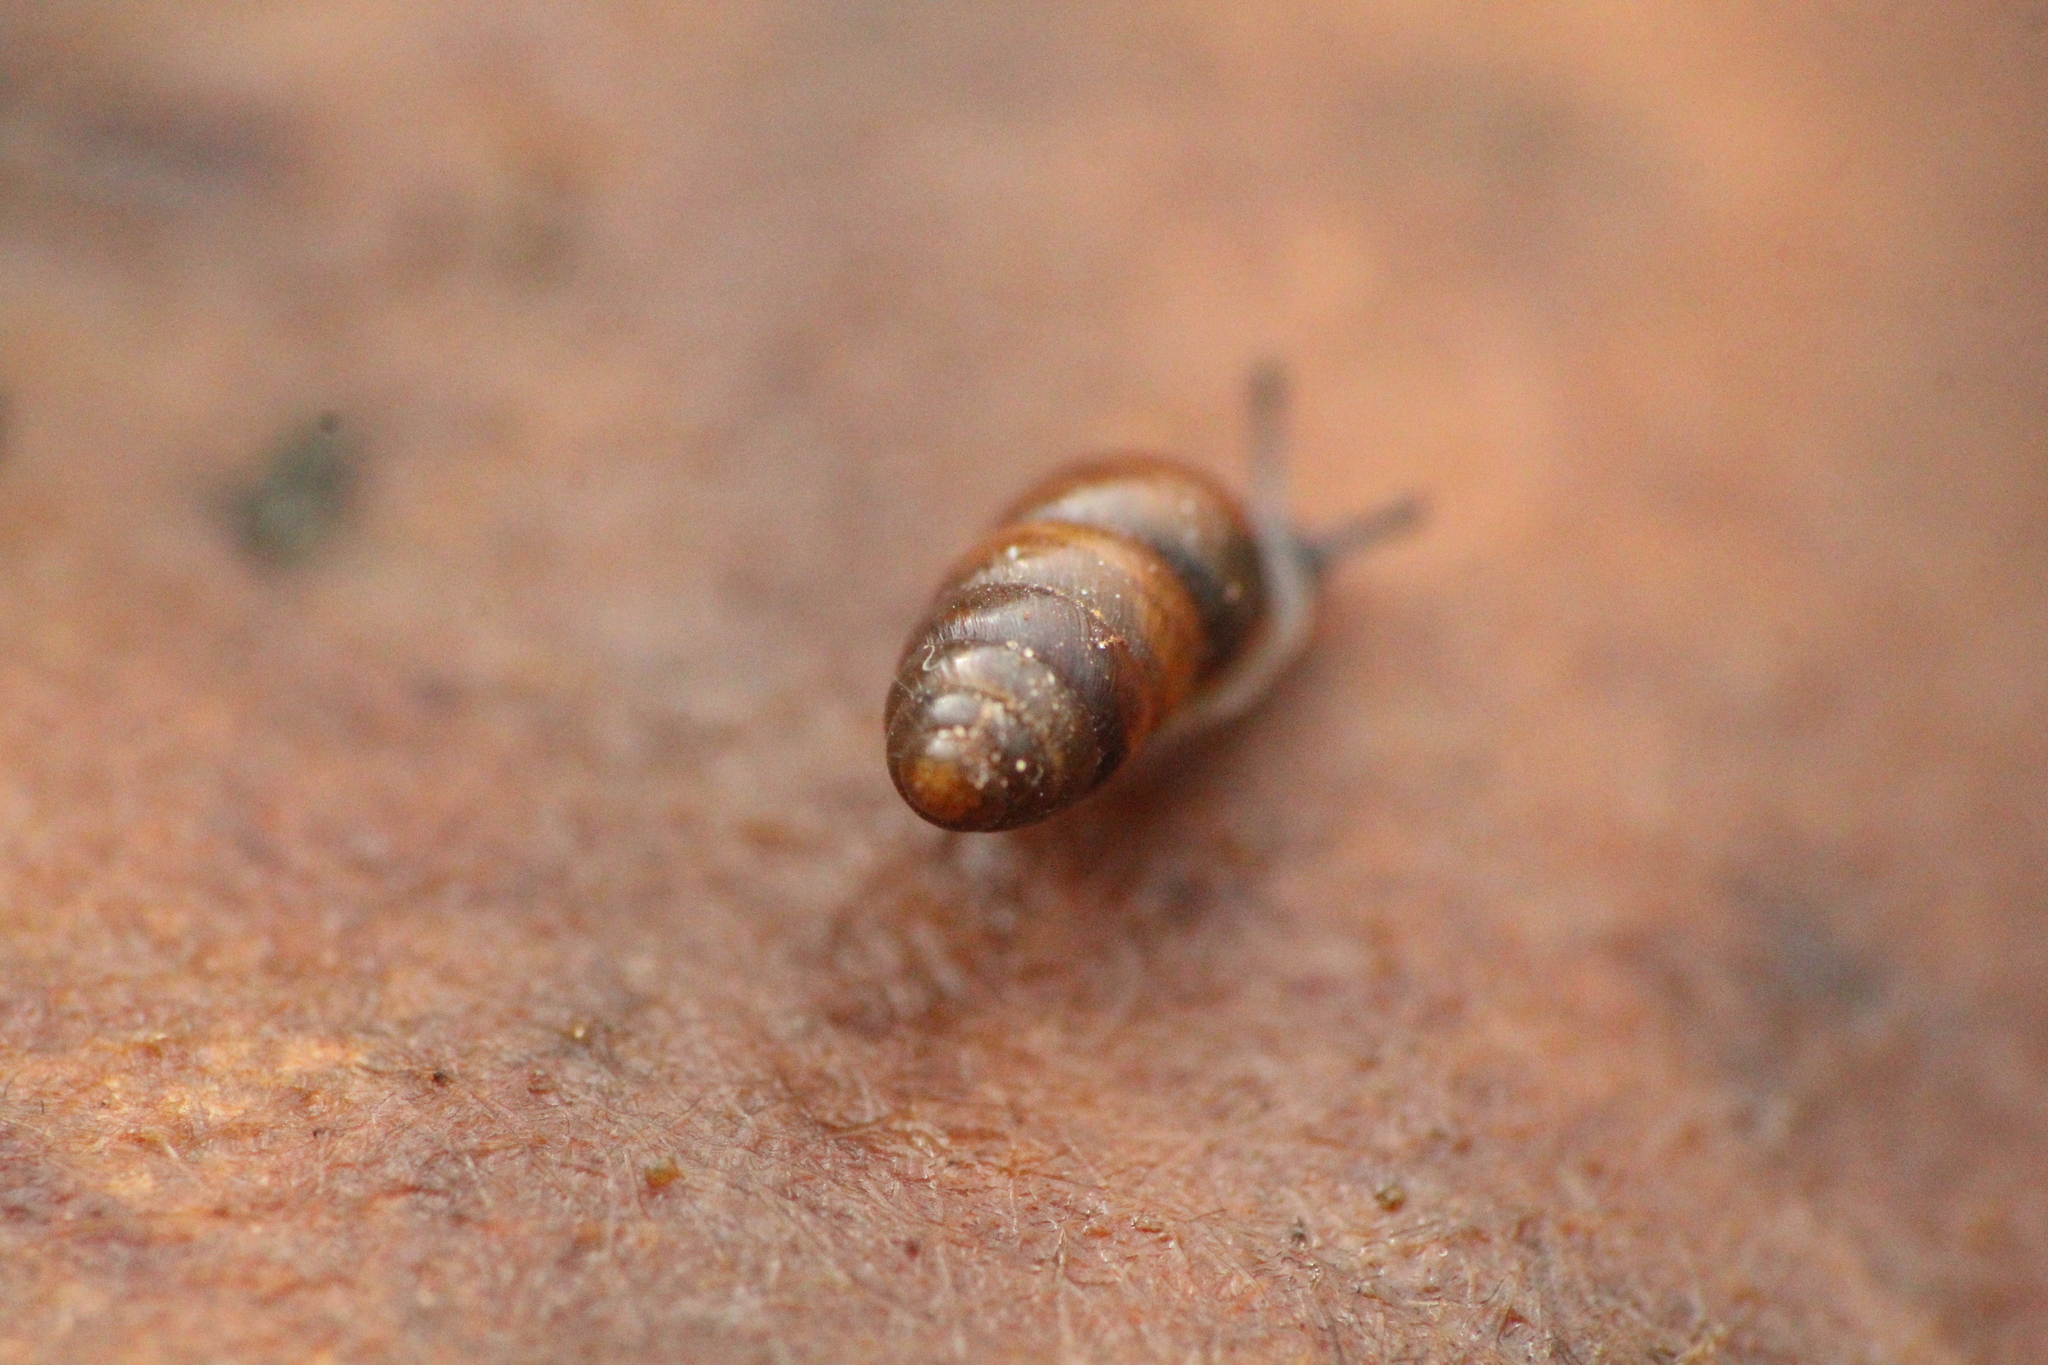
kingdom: Animalia
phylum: Mollusca
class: Gastropoda
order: Stylommatophora
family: Lauriidae
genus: Lauria
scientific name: Lauria cylindracea
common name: Common chrysalis snail
